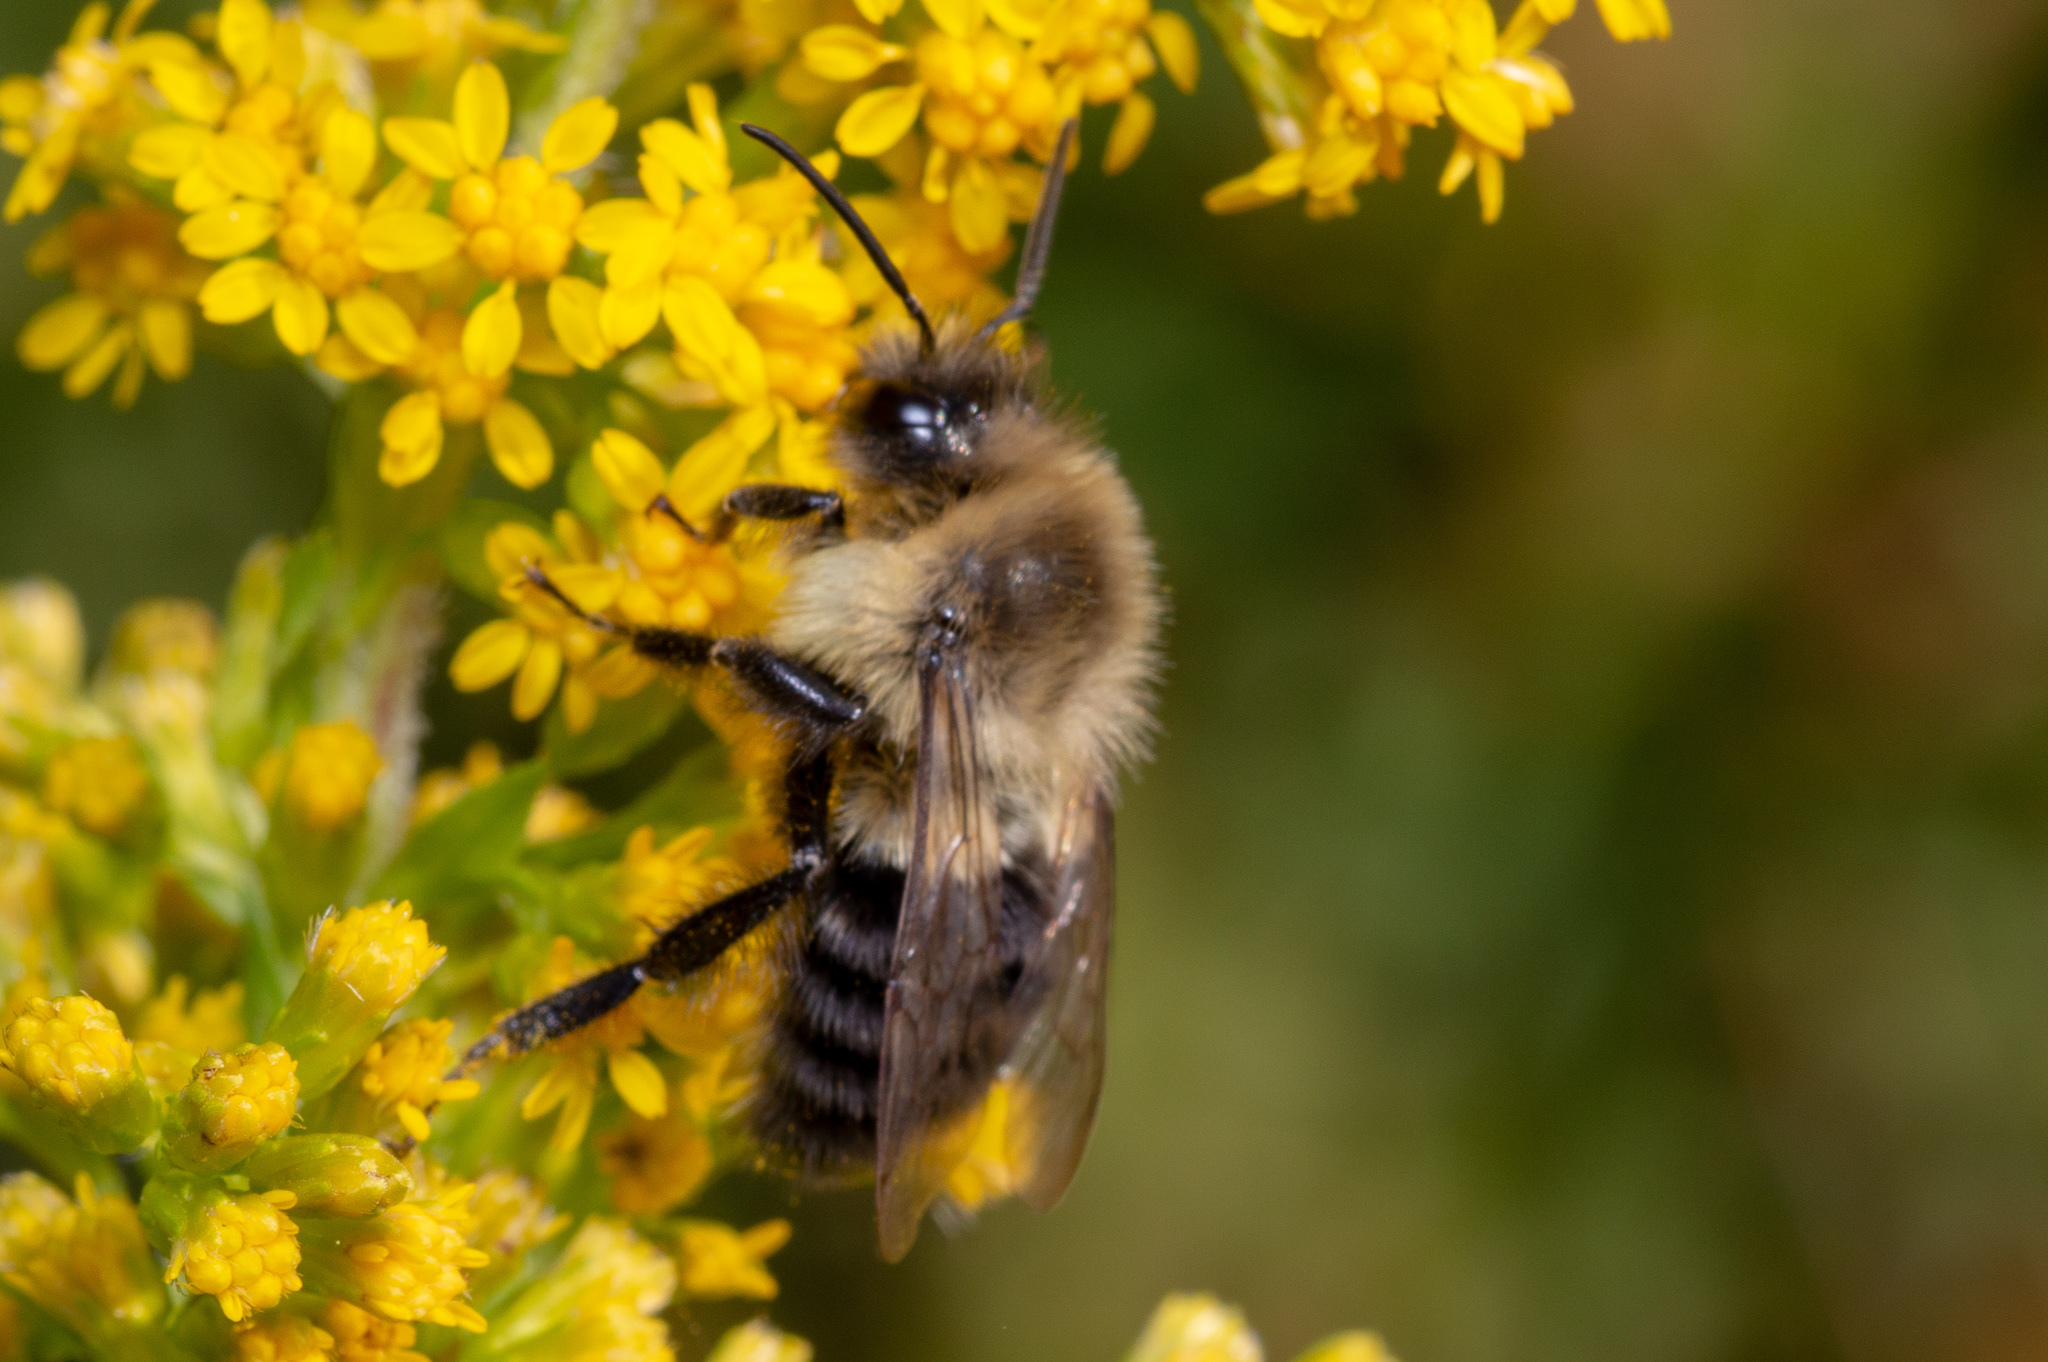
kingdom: Animalia
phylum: Arthropoda
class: Insecta
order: Hymenoptera
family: Apidae
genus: Bombus
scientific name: Bombus impatiens
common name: Common eastern bumble bee
